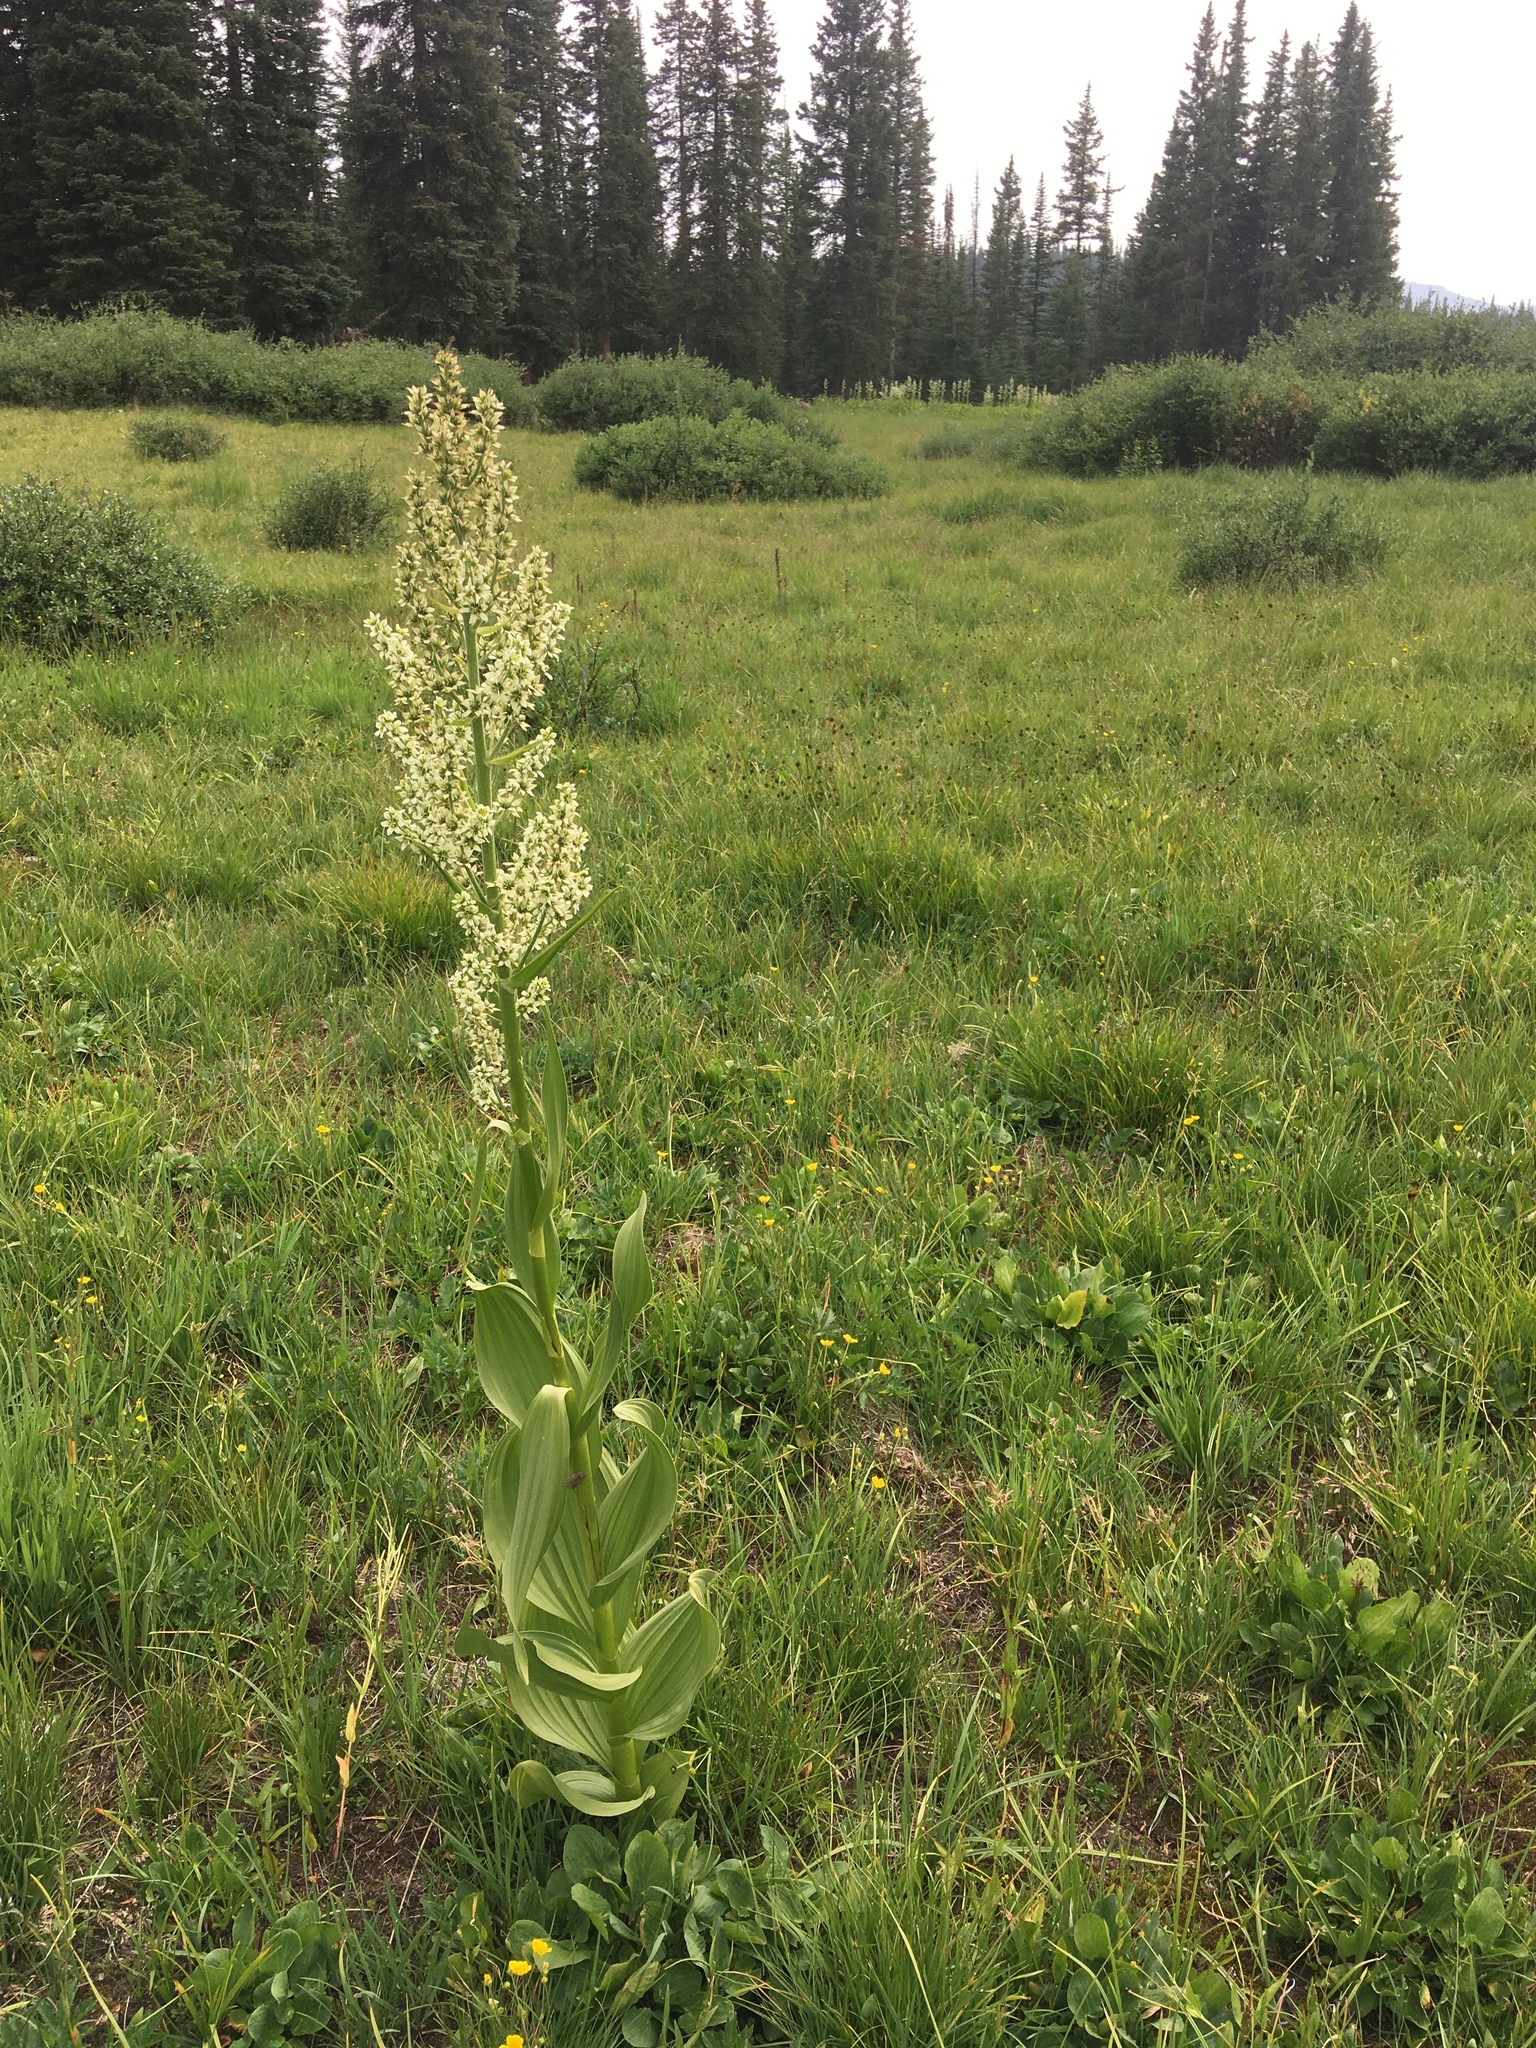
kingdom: Plantae
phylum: Tracheophyta
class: Liliopsida
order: Liliales
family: Melanthiaceae
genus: Veratrum
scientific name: Veratrum californicum
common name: California veratrum
